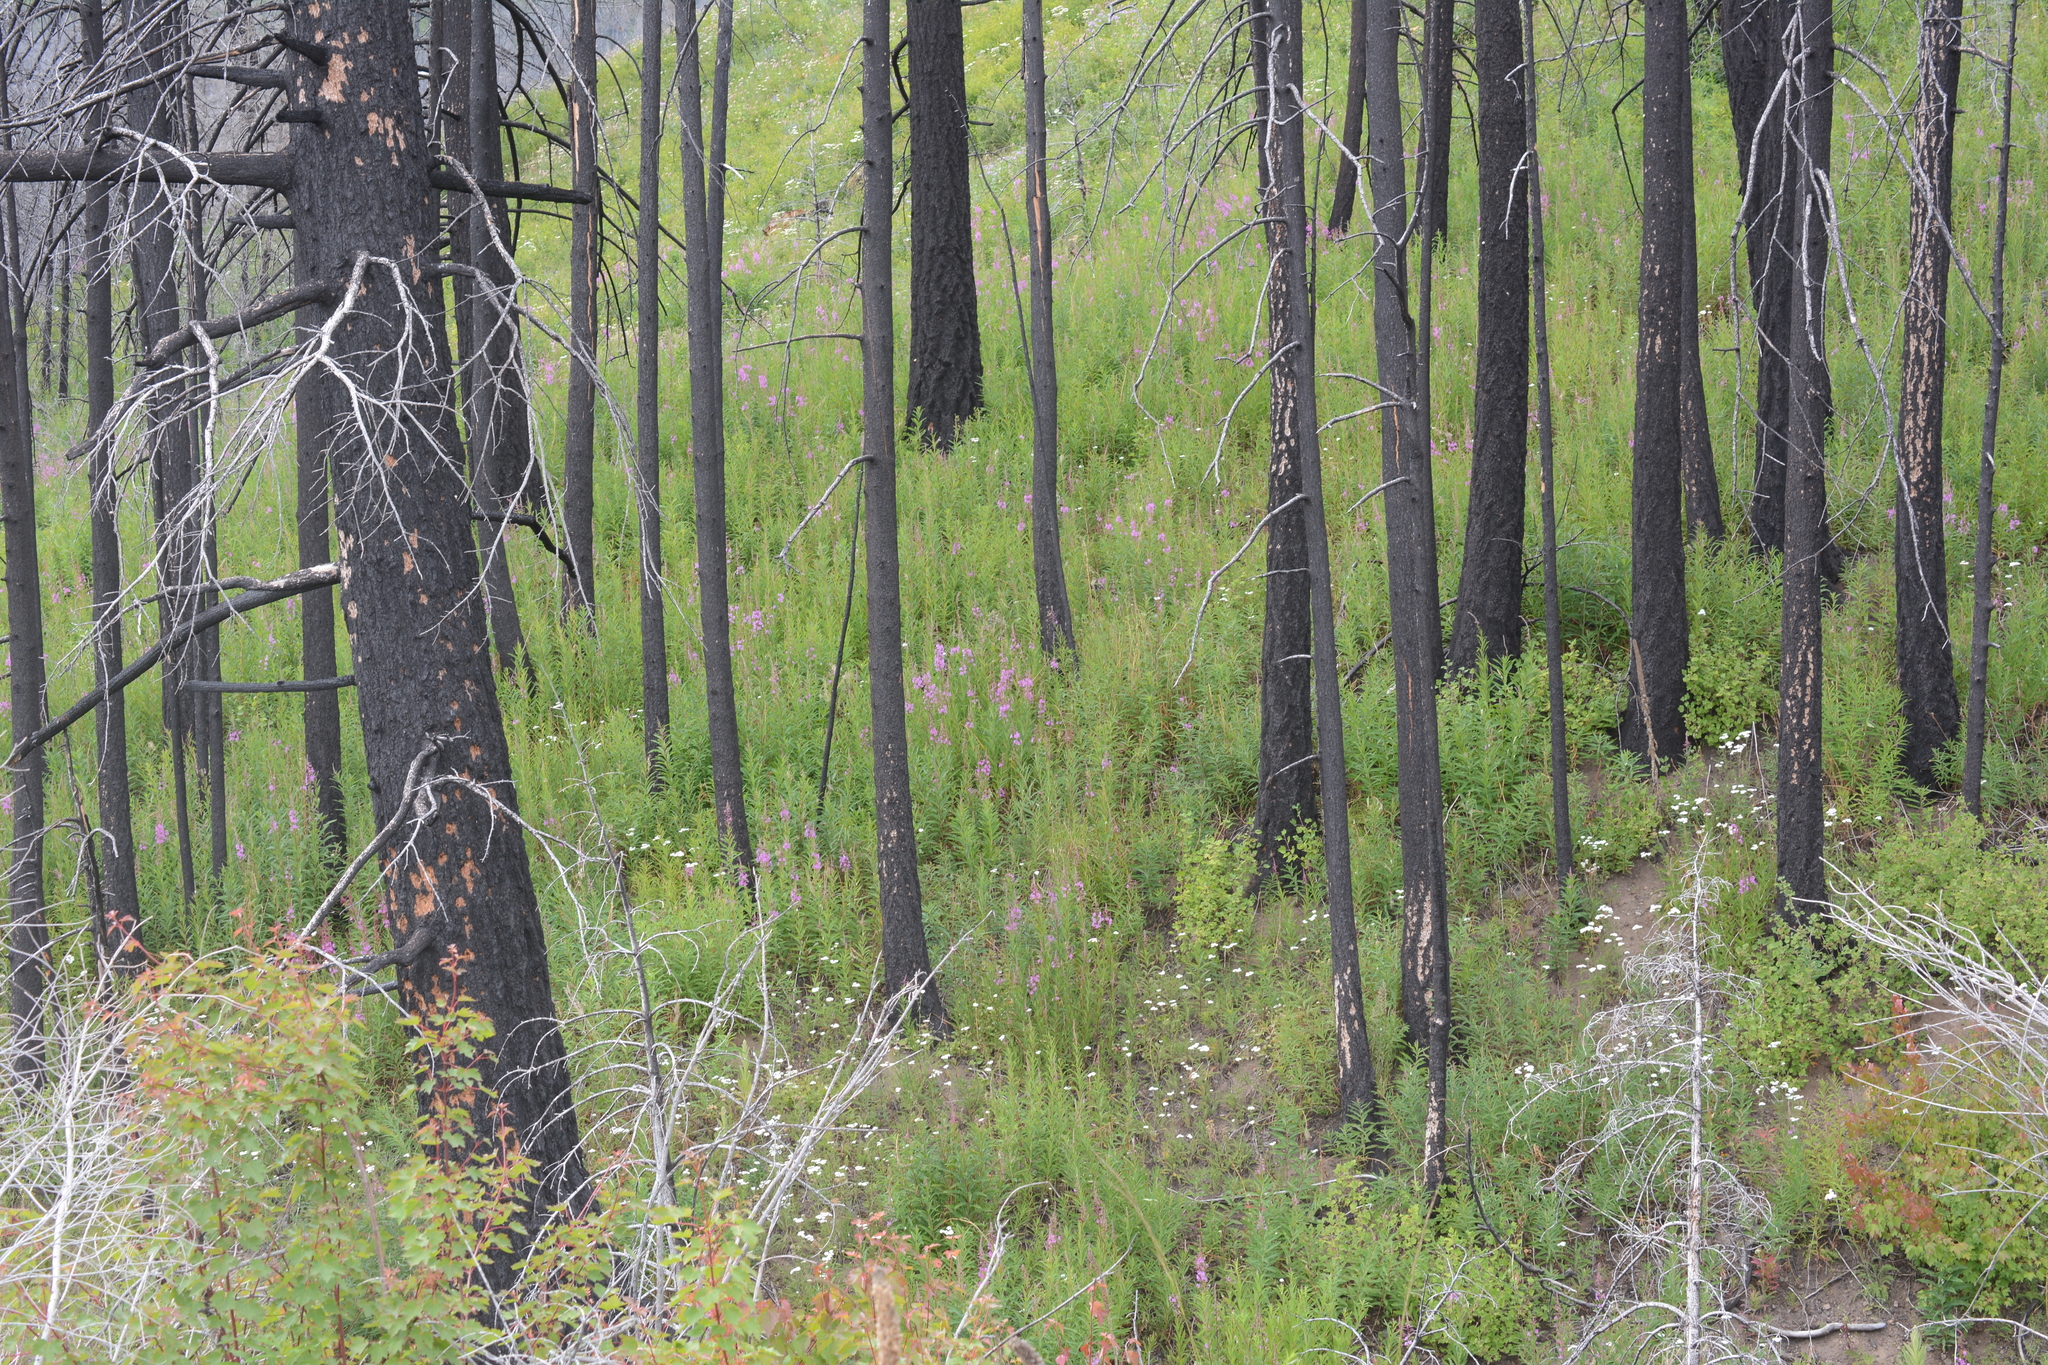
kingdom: Plantae
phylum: Tracheophyta
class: Magnoliopsida
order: Myrtales
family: Onagraceae
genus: Chamaenerion
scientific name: Chamaenerion angustifolium
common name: Fireweed
